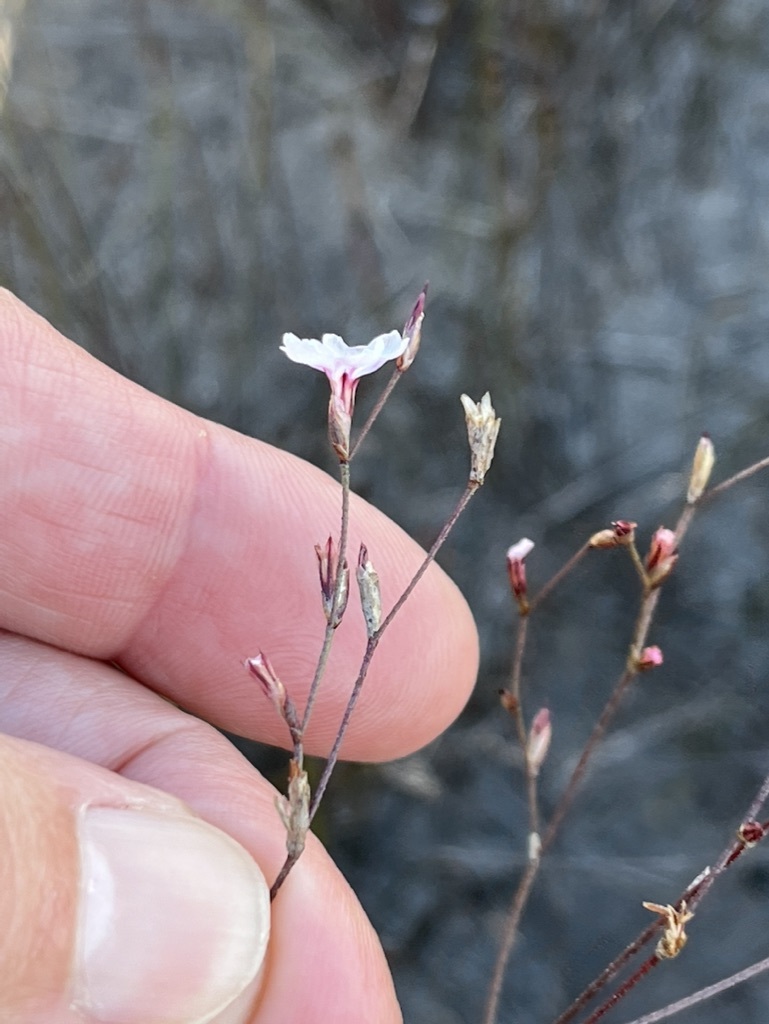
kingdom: Plantae
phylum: Tracheophyta
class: Magnoliopsida
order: Caryophyllales
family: Plumbaginaceae
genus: Limonium
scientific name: Limonium anthericoides
